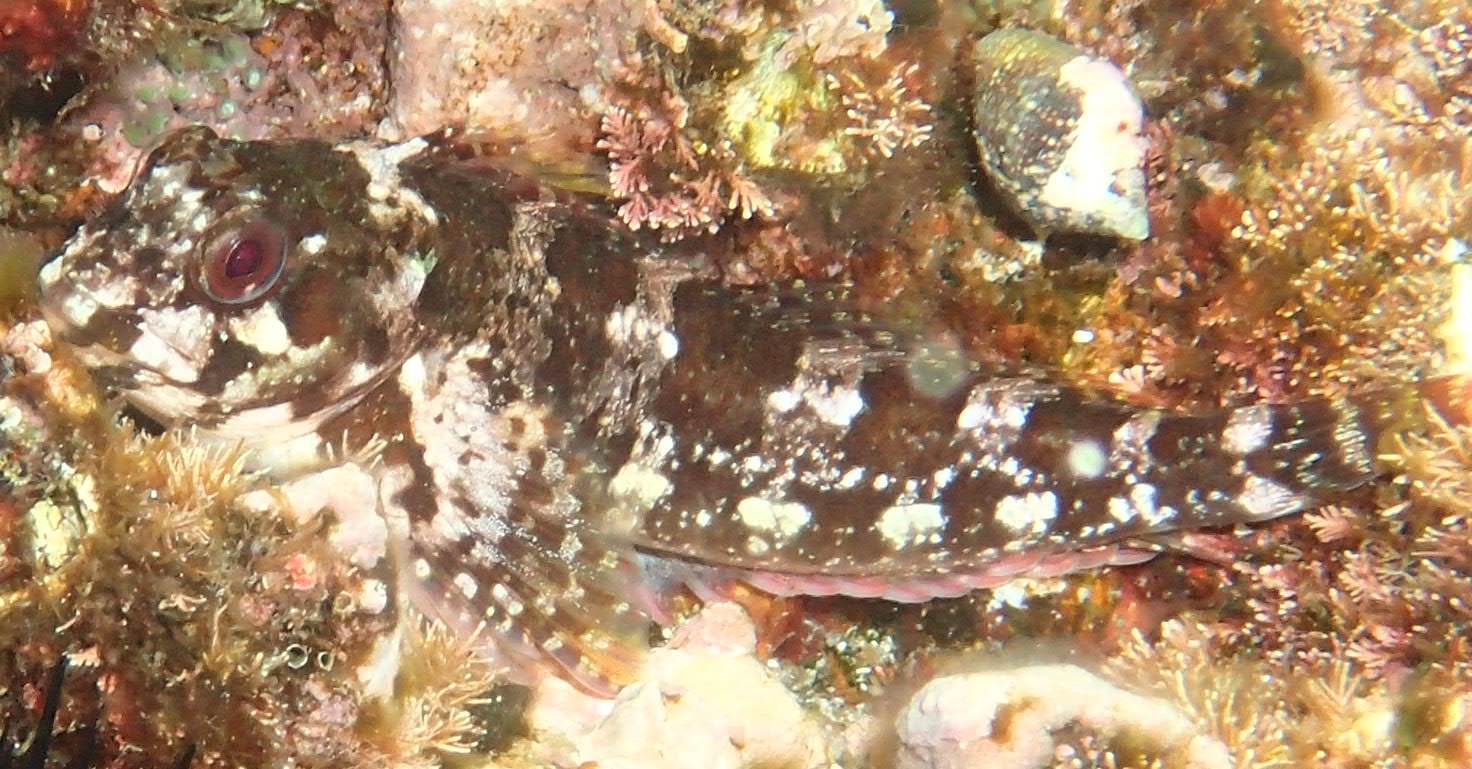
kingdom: Animalia
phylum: Chordata
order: Perciformes
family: Blenniidae
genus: Lipophrys
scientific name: Lipophrys trigloides
